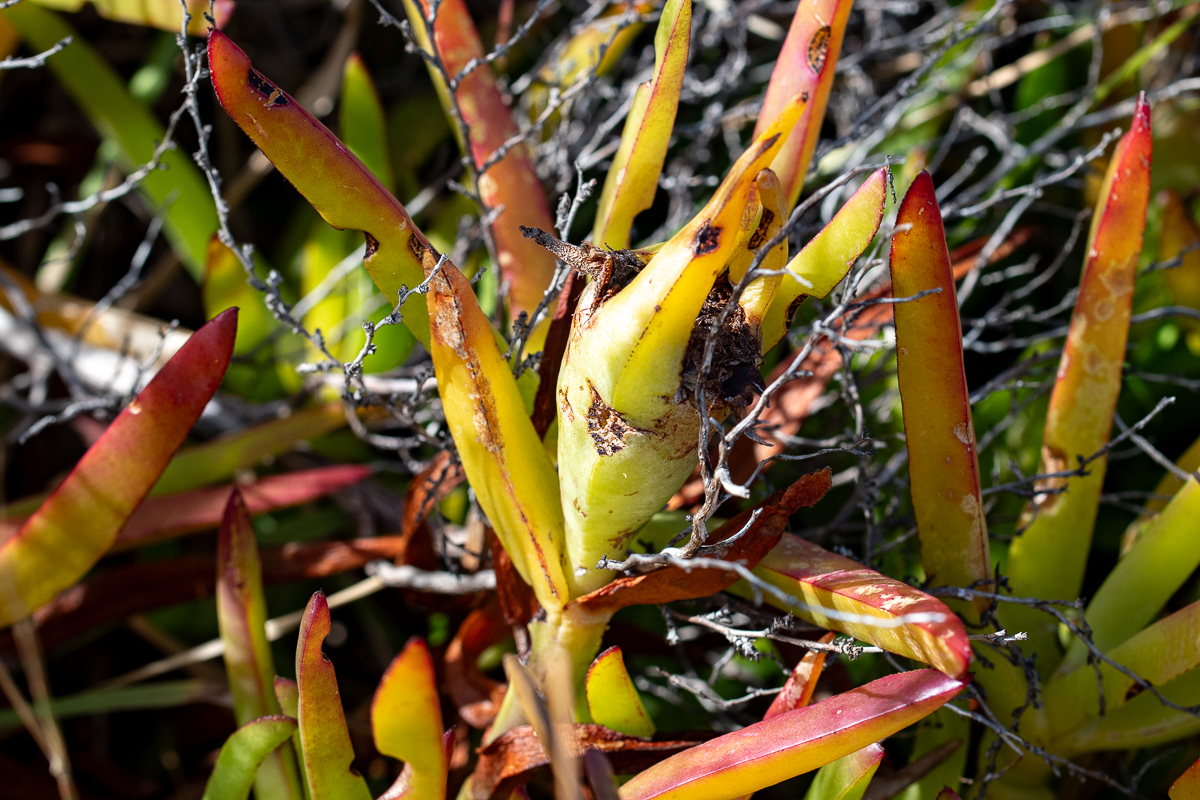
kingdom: Plantae
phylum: Tracheophyta
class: Magnoliopsida
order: Caryophyllales
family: Aizoaceae
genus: Carpobrotus
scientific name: Carpobrotus edulis
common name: Hottentot-fig
